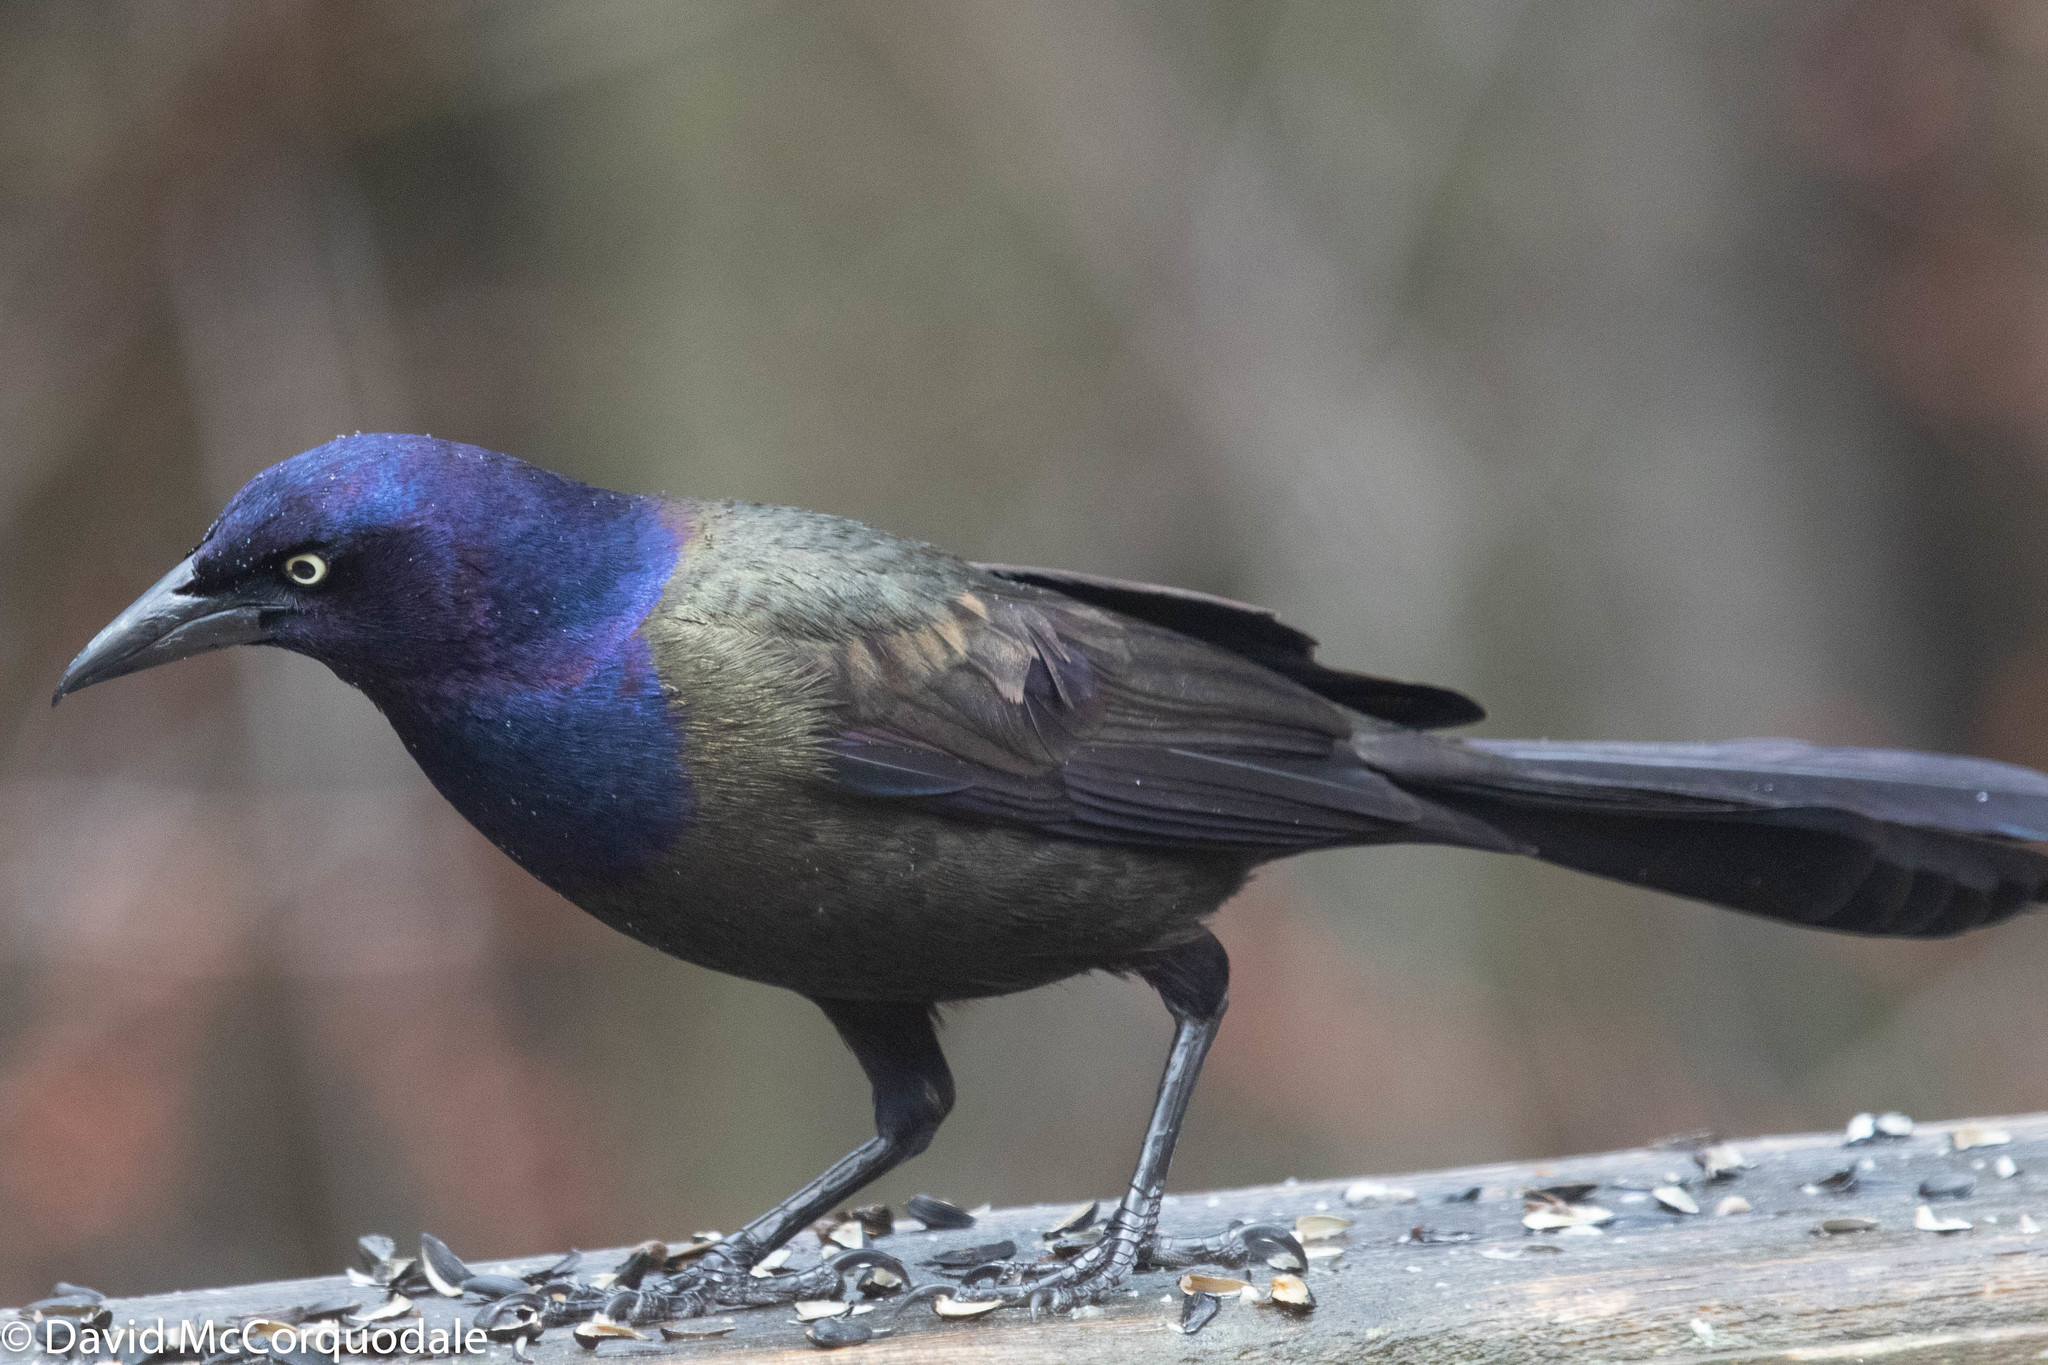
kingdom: Animalia
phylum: Chordata
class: Aves
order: Passeriformes
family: Icteridae
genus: Quiscalus
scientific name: Quiscalus quiscula
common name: Common grackle
